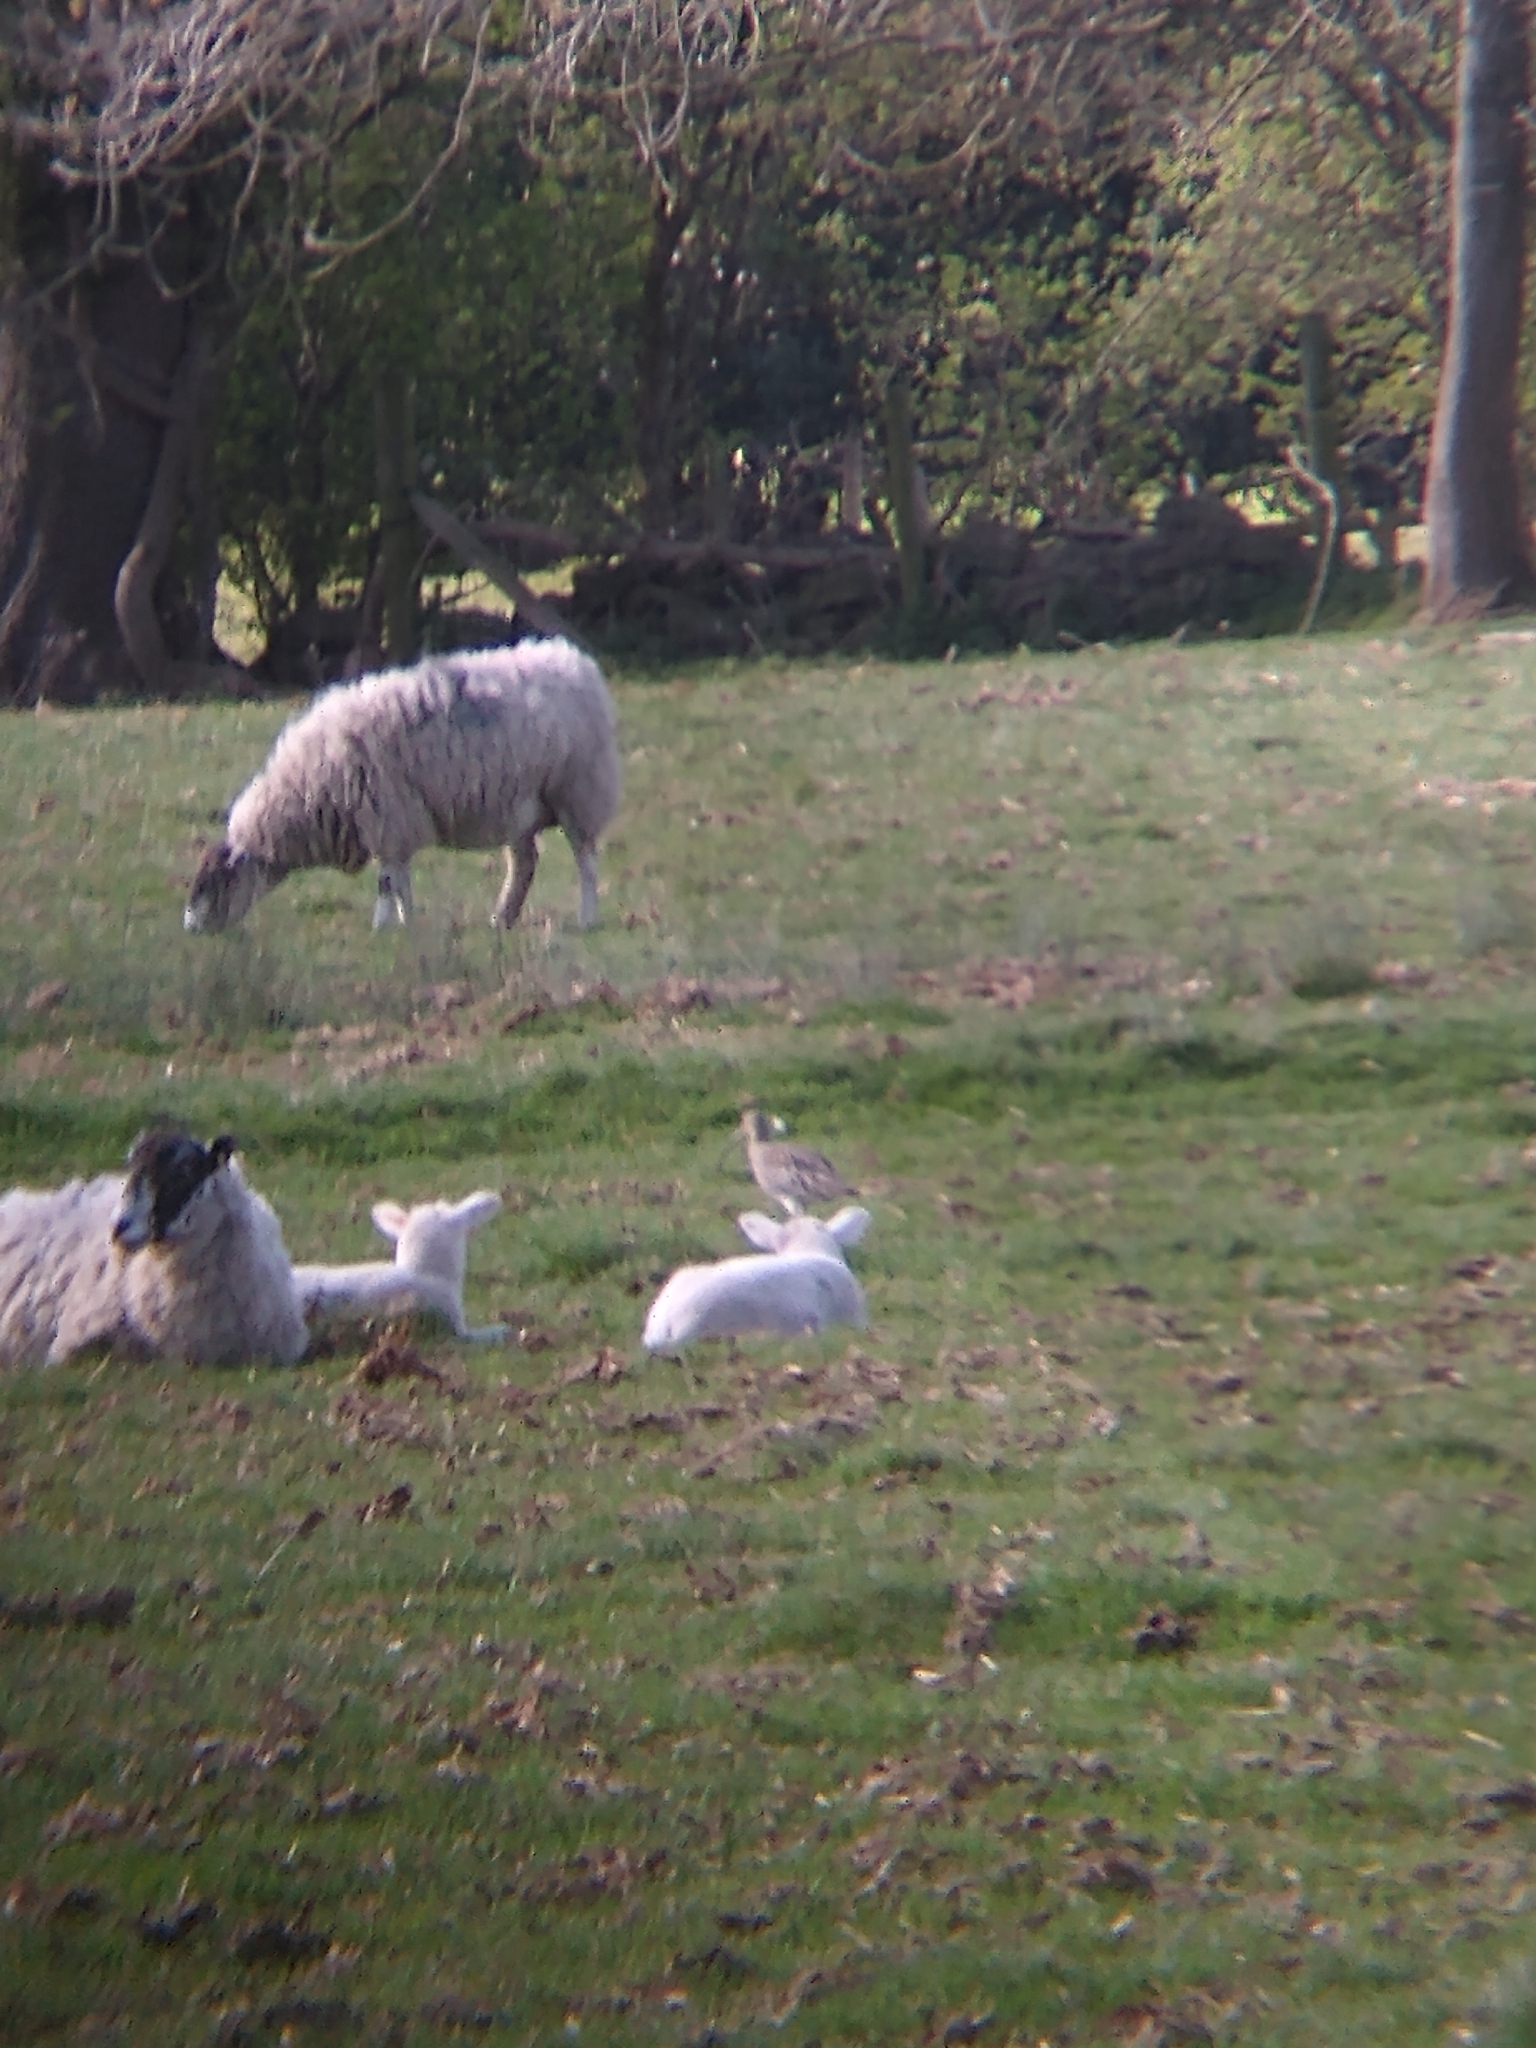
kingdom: Animalia
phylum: Chordata
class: Aves
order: Charadriiformes
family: Scolopacidae
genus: Numenius
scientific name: Numenius arquata
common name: Eurasian curlew
